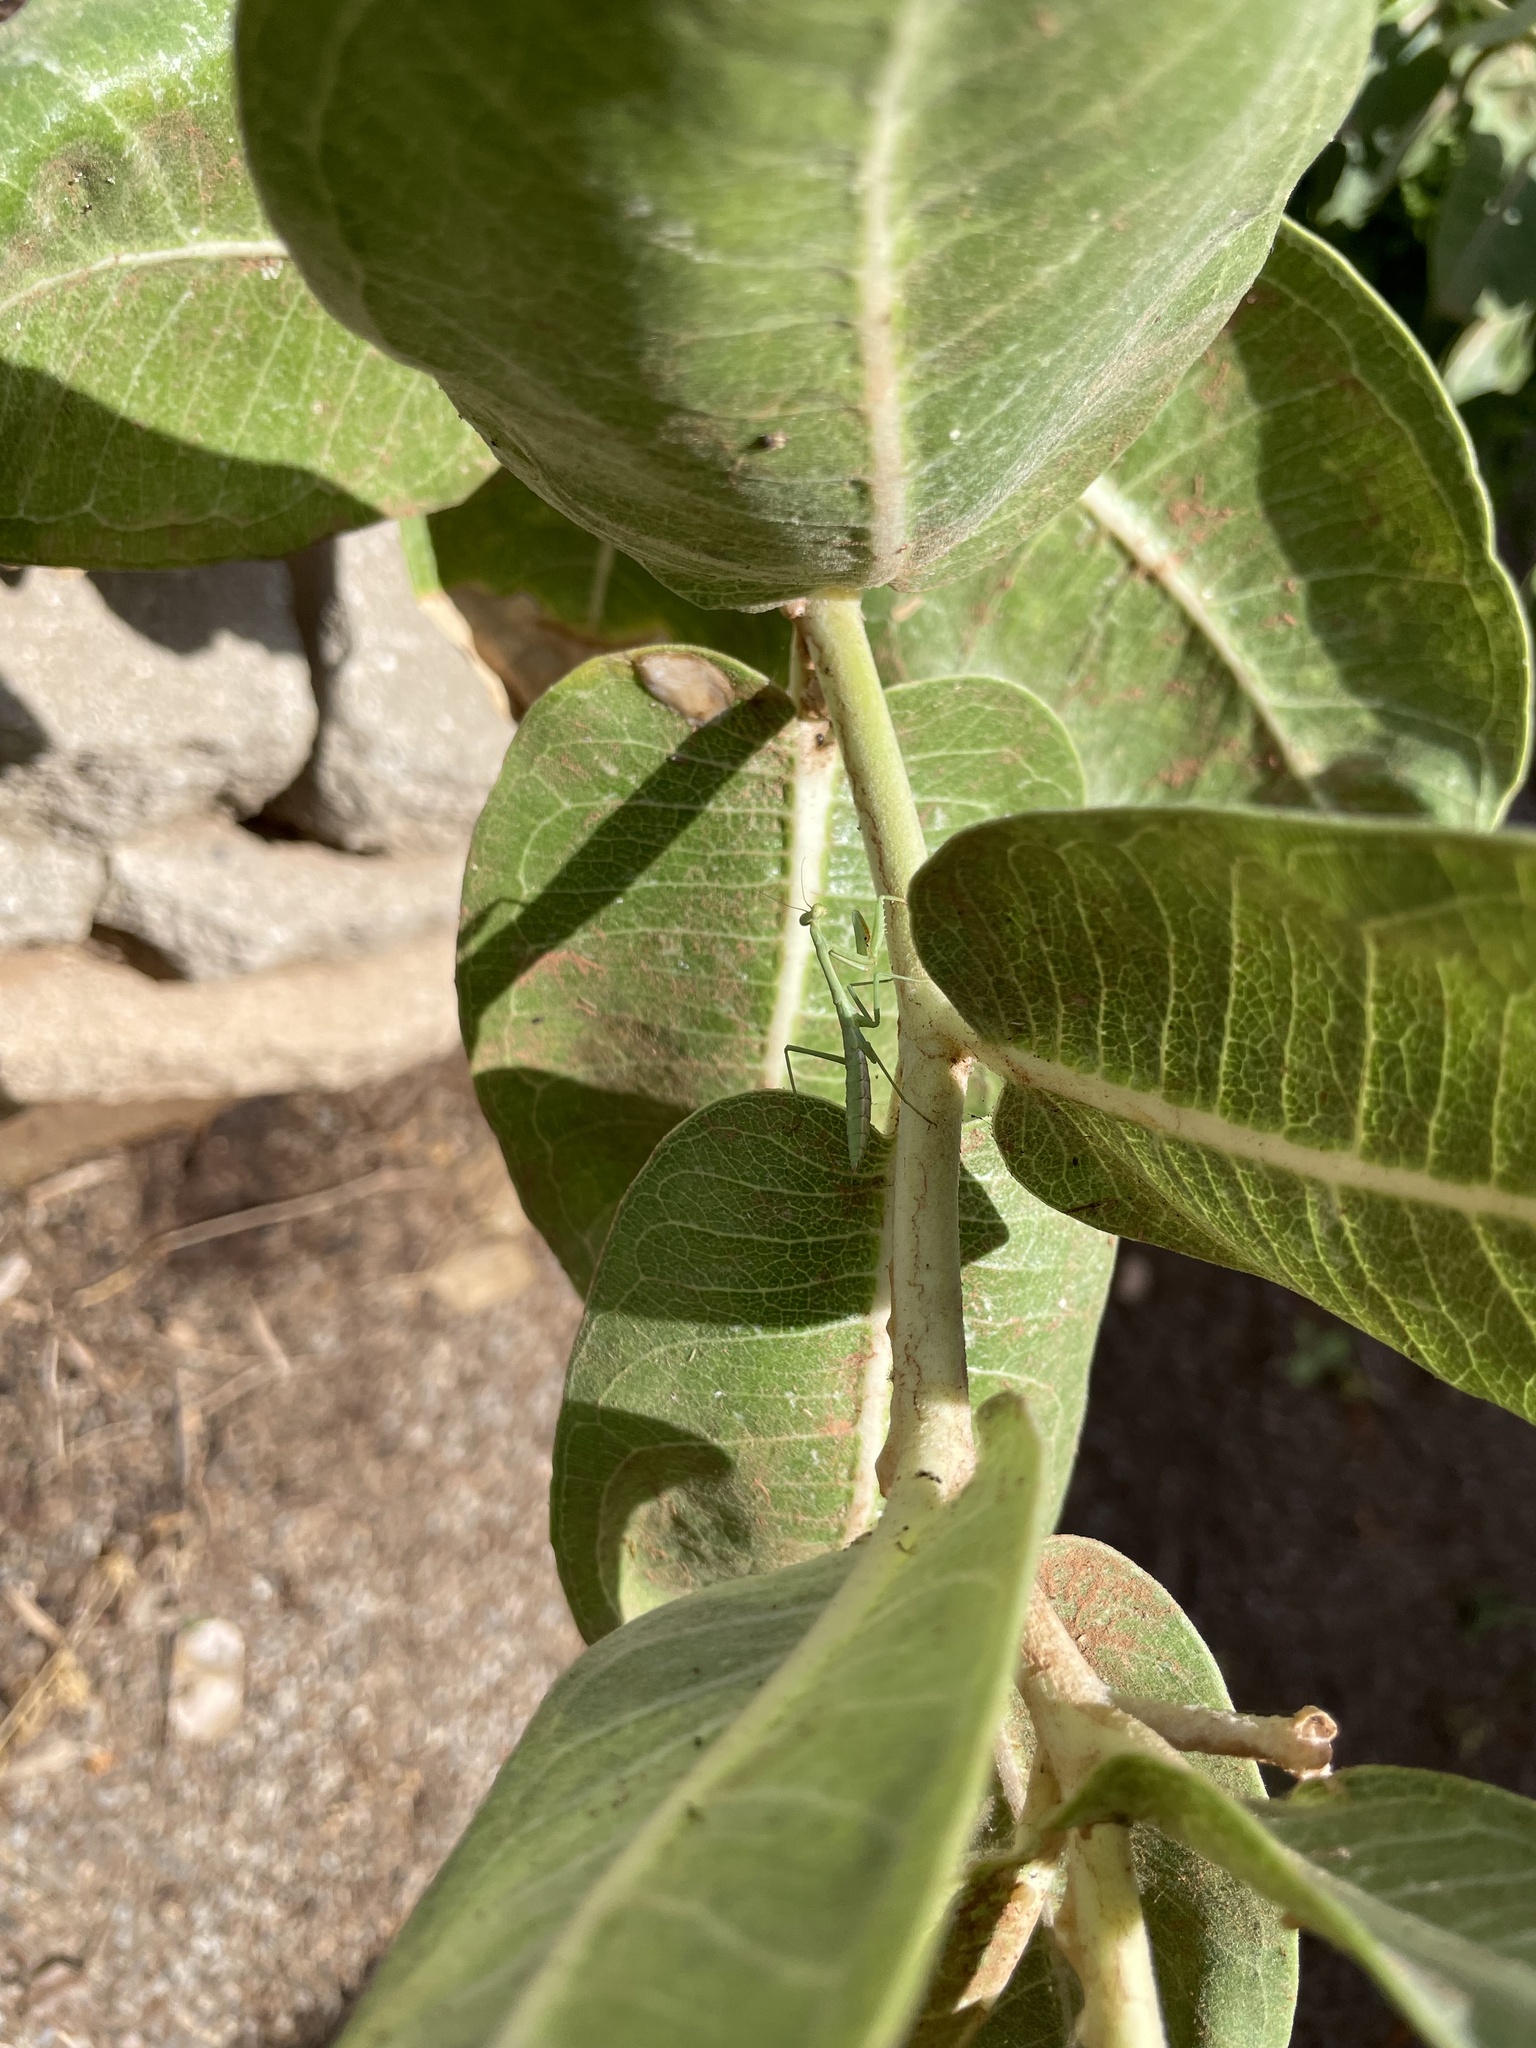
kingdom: Animalia
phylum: Arthropoda
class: Insecta
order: Mantodea
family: Mantidae
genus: Stagmomantis
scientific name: Stagmomantis carolina
